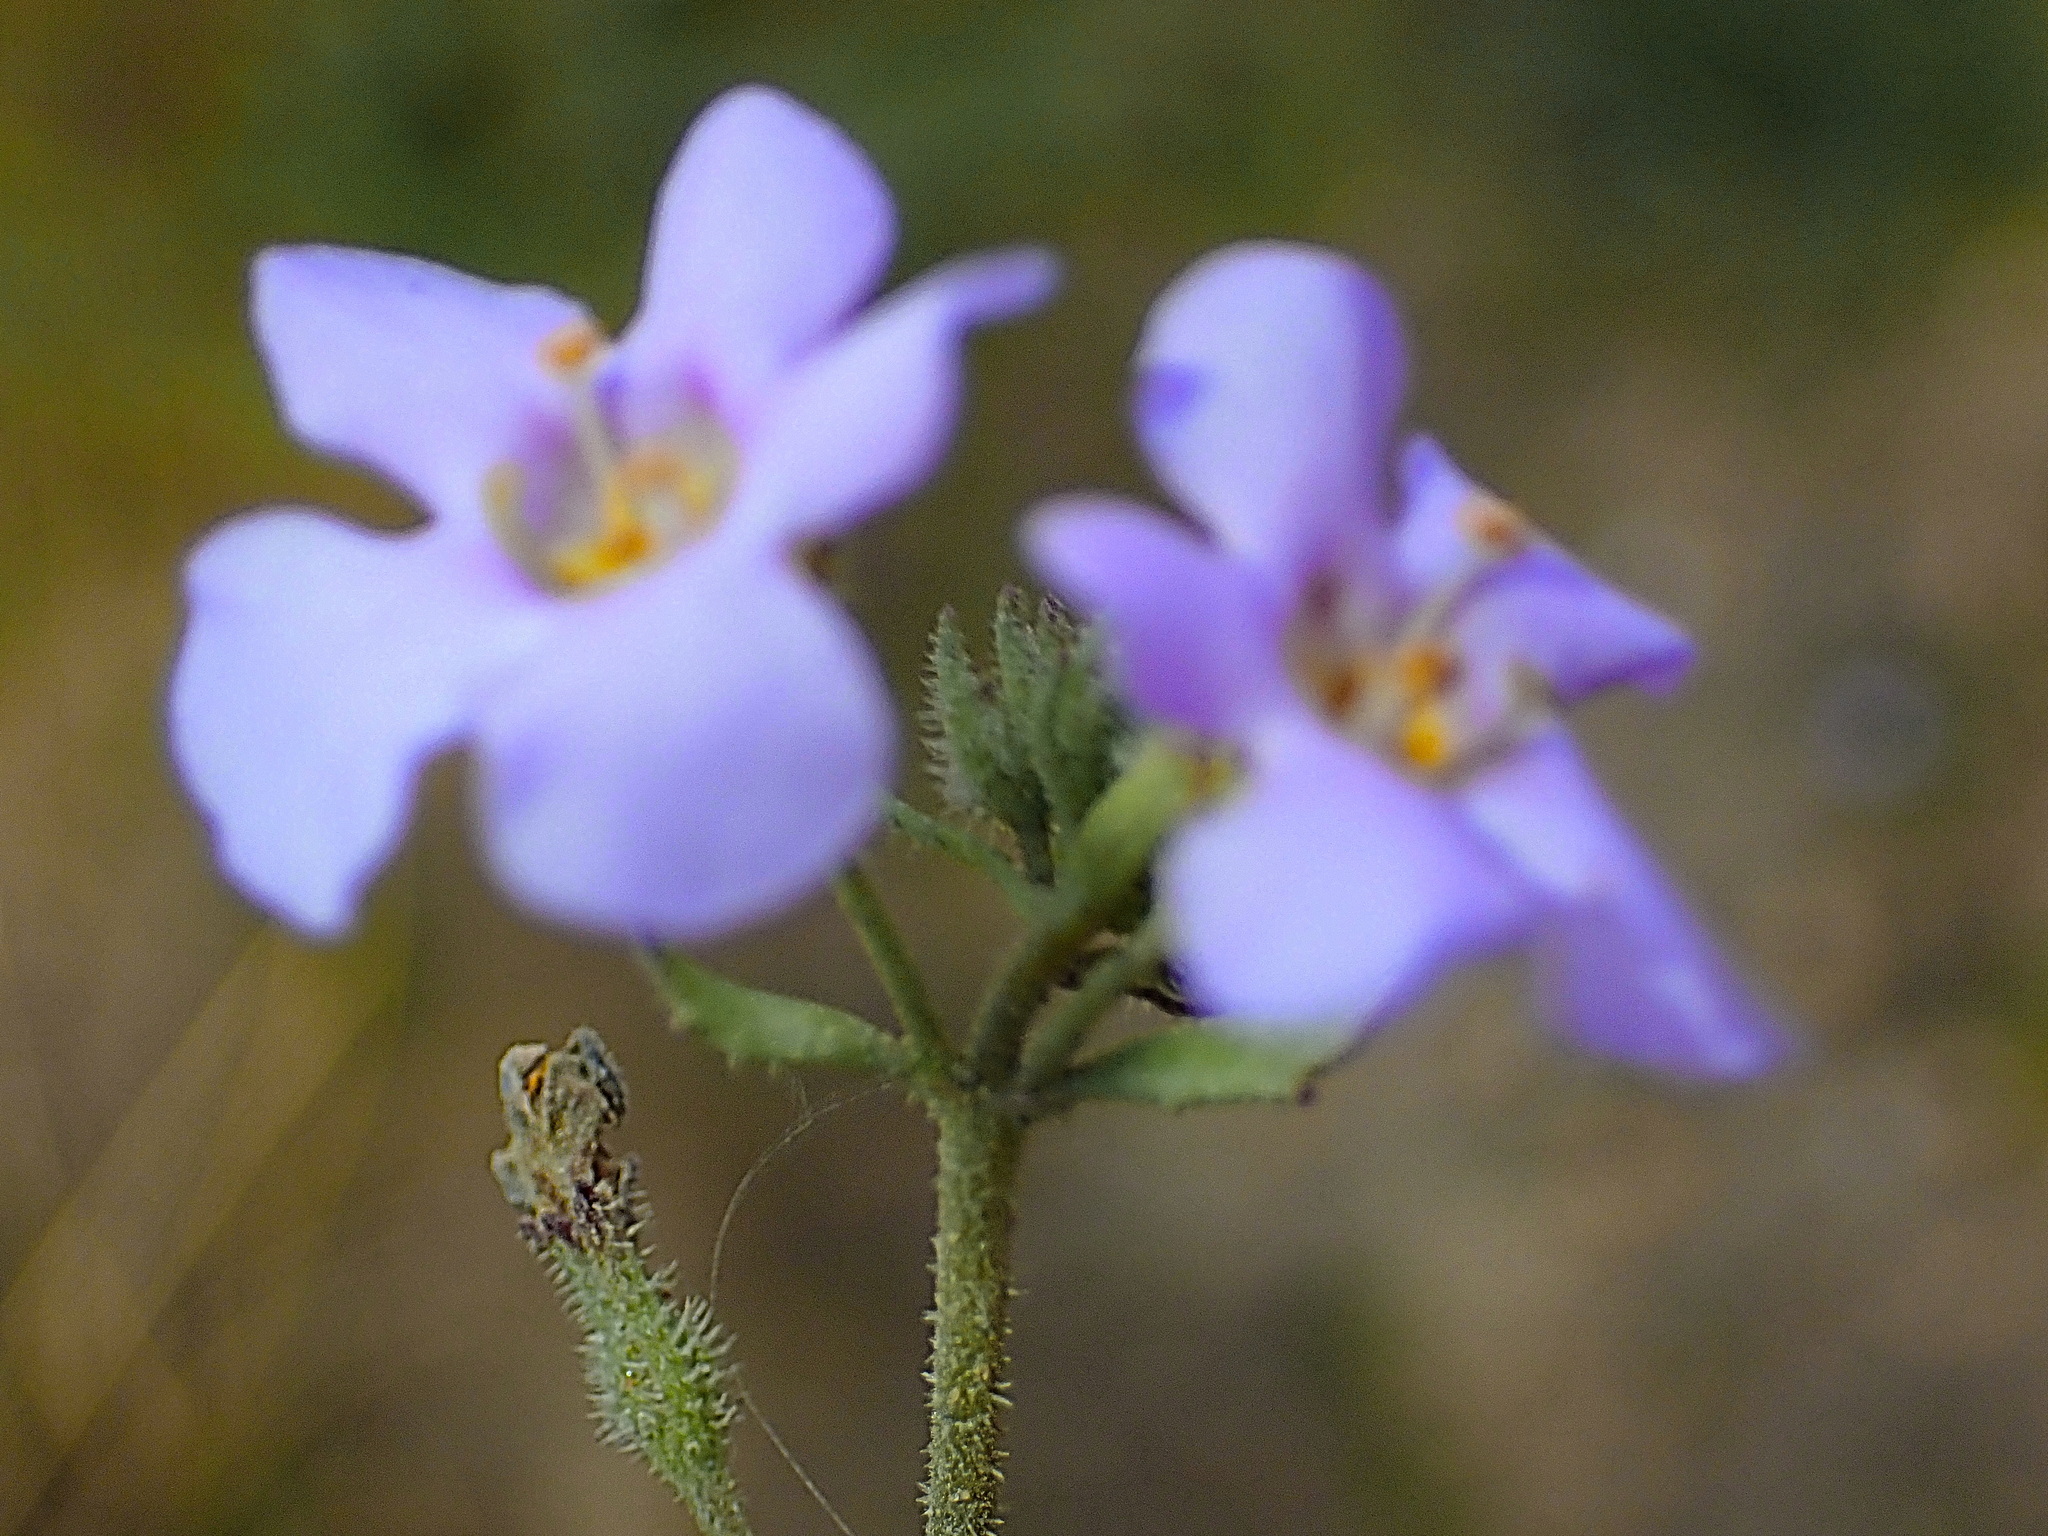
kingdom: Plantae
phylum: Tracheophyta
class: Magnoliopsida
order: Lamiales
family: Scrophulariaceae
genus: Chaenostoma
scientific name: Chaenostoma revolutum
